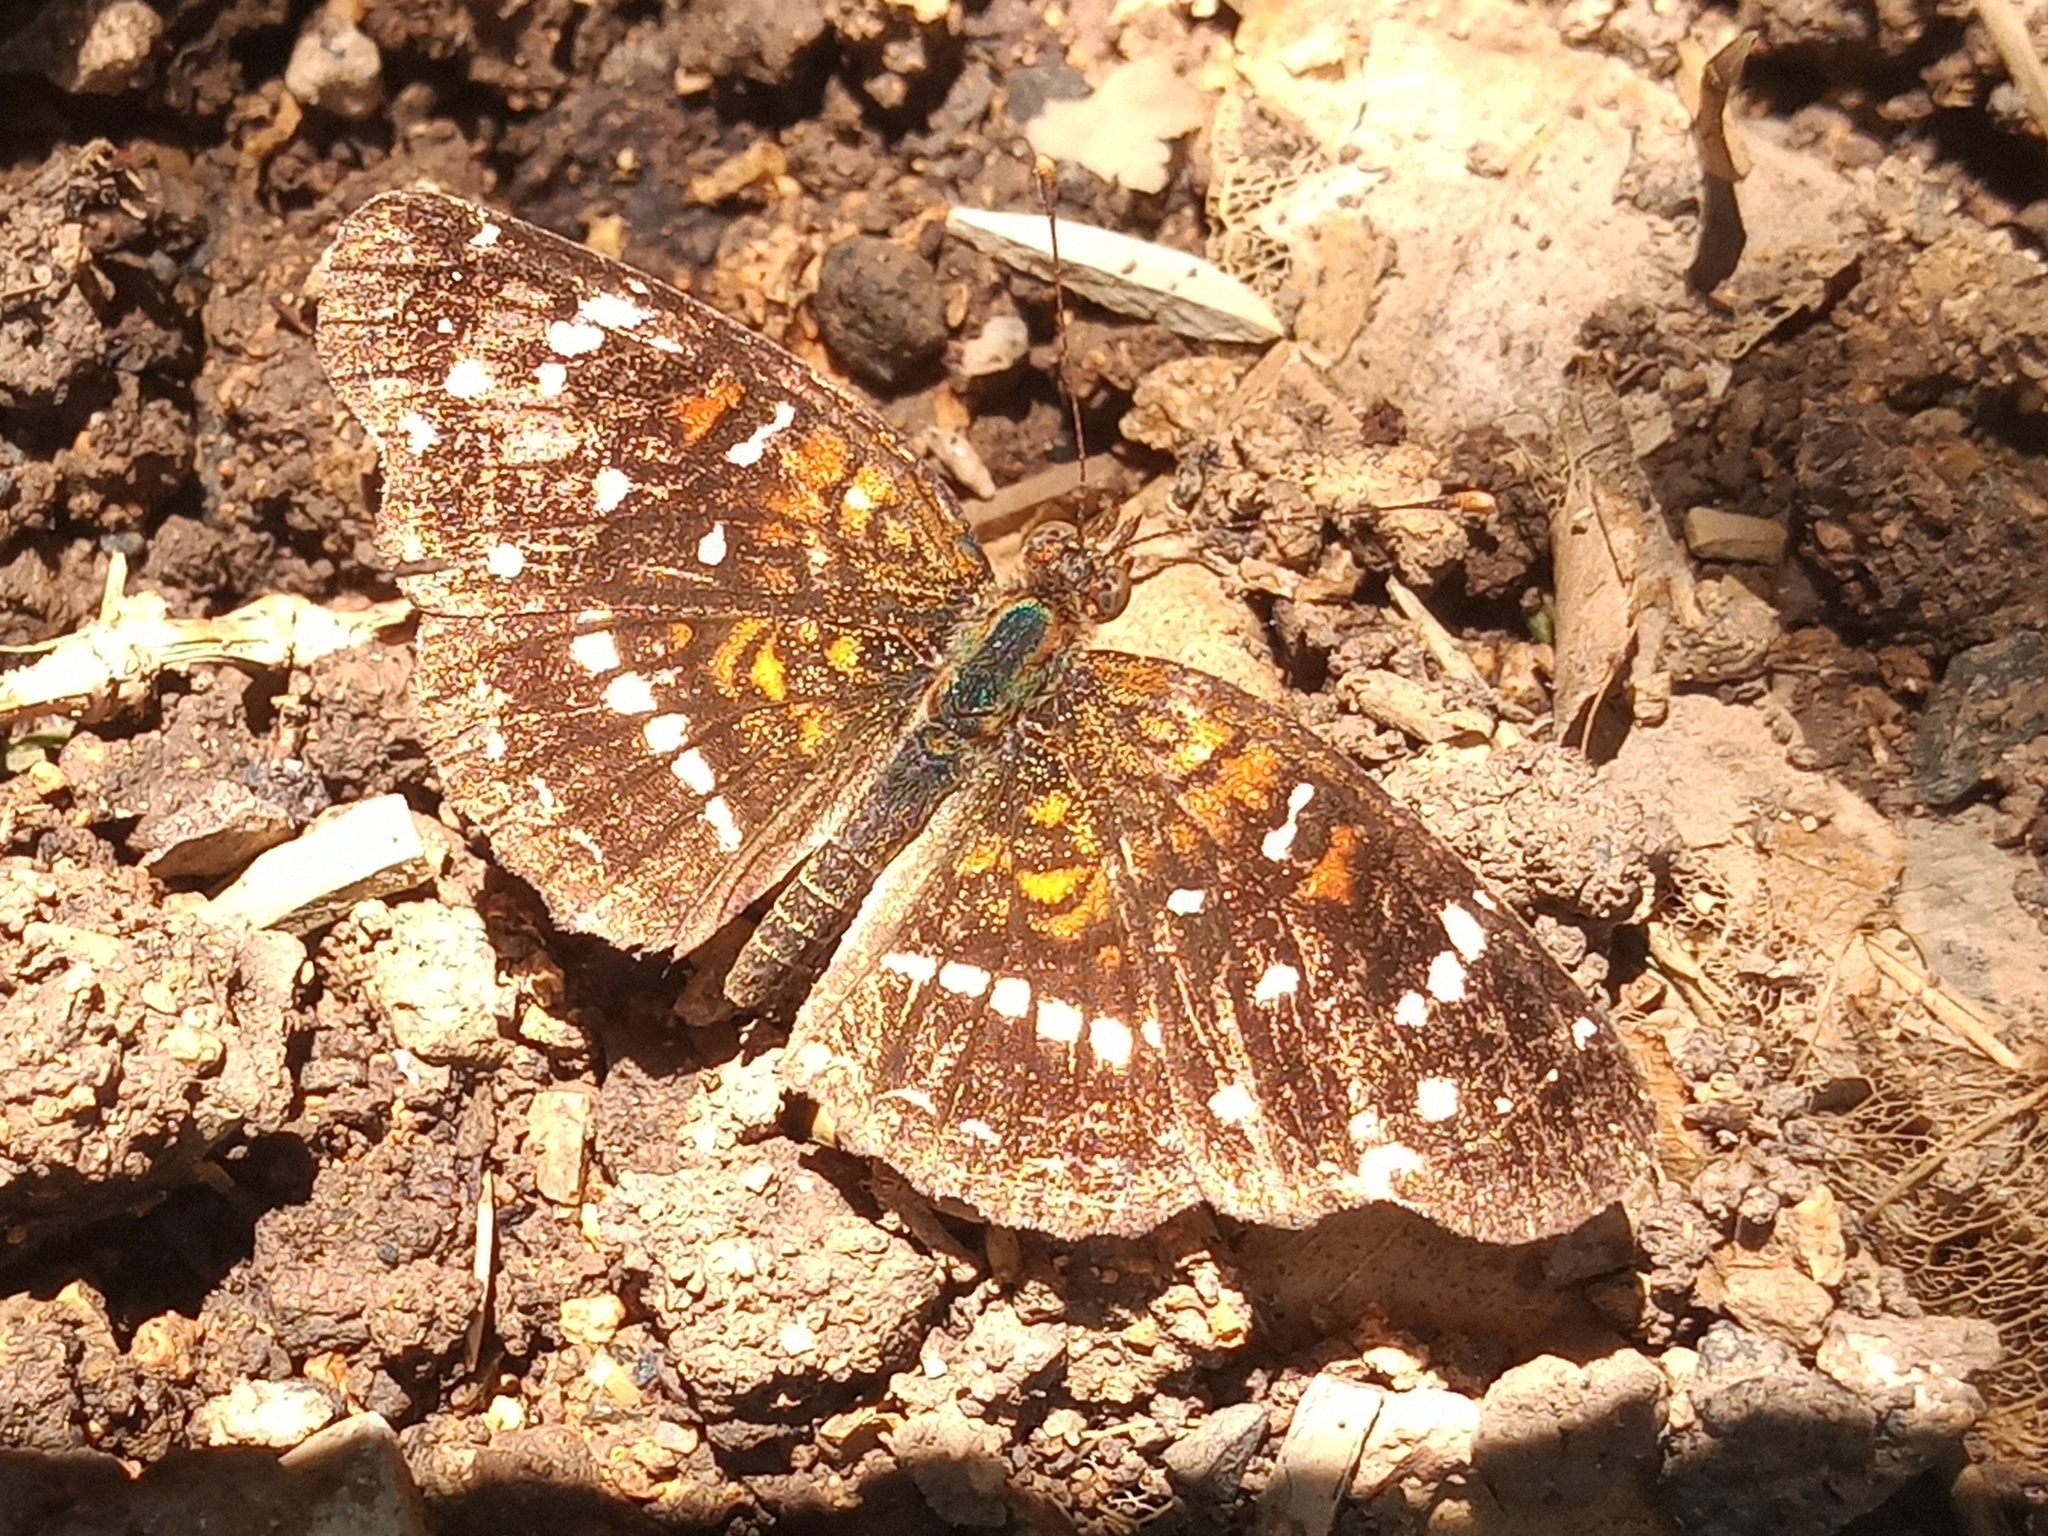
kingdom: Animalia
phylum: Arthropoda
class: Insecta
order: Lepidoptera
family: Nymphalidae
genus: Anthanassa
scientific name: Anthanassa texana
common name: Texan crescent
